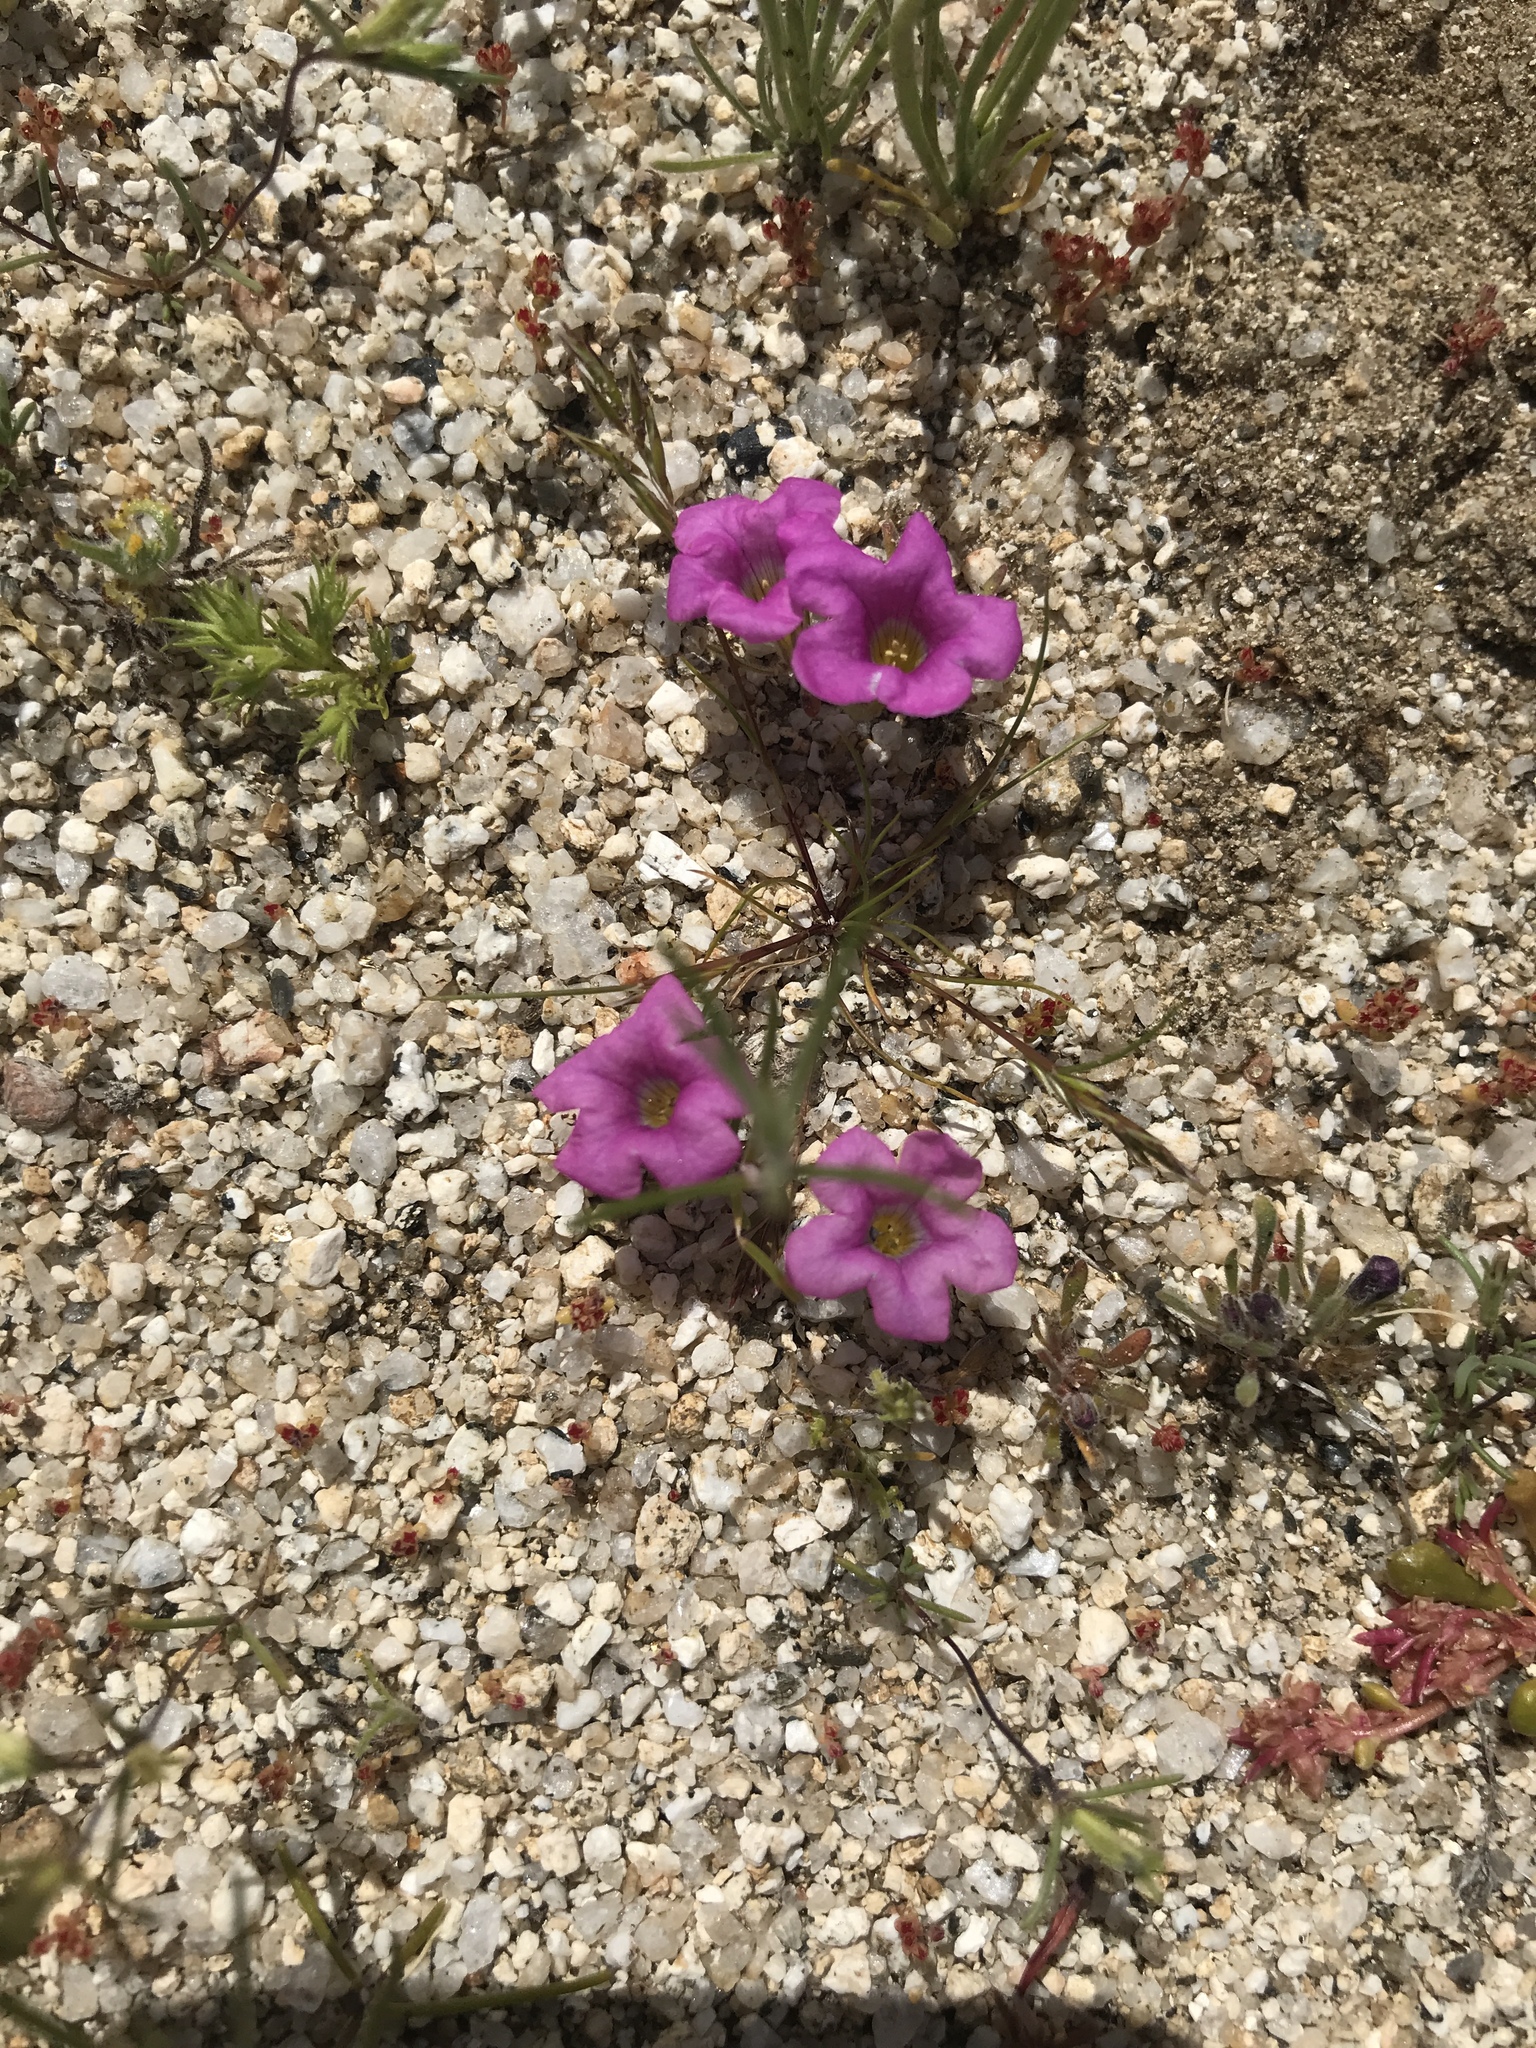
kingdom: Plantae
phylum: Tracheophyta
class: Magnoliopsida
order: Boraginales
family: Namaceae
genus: Nama
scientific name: Nama demissa
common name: Leafy nama
